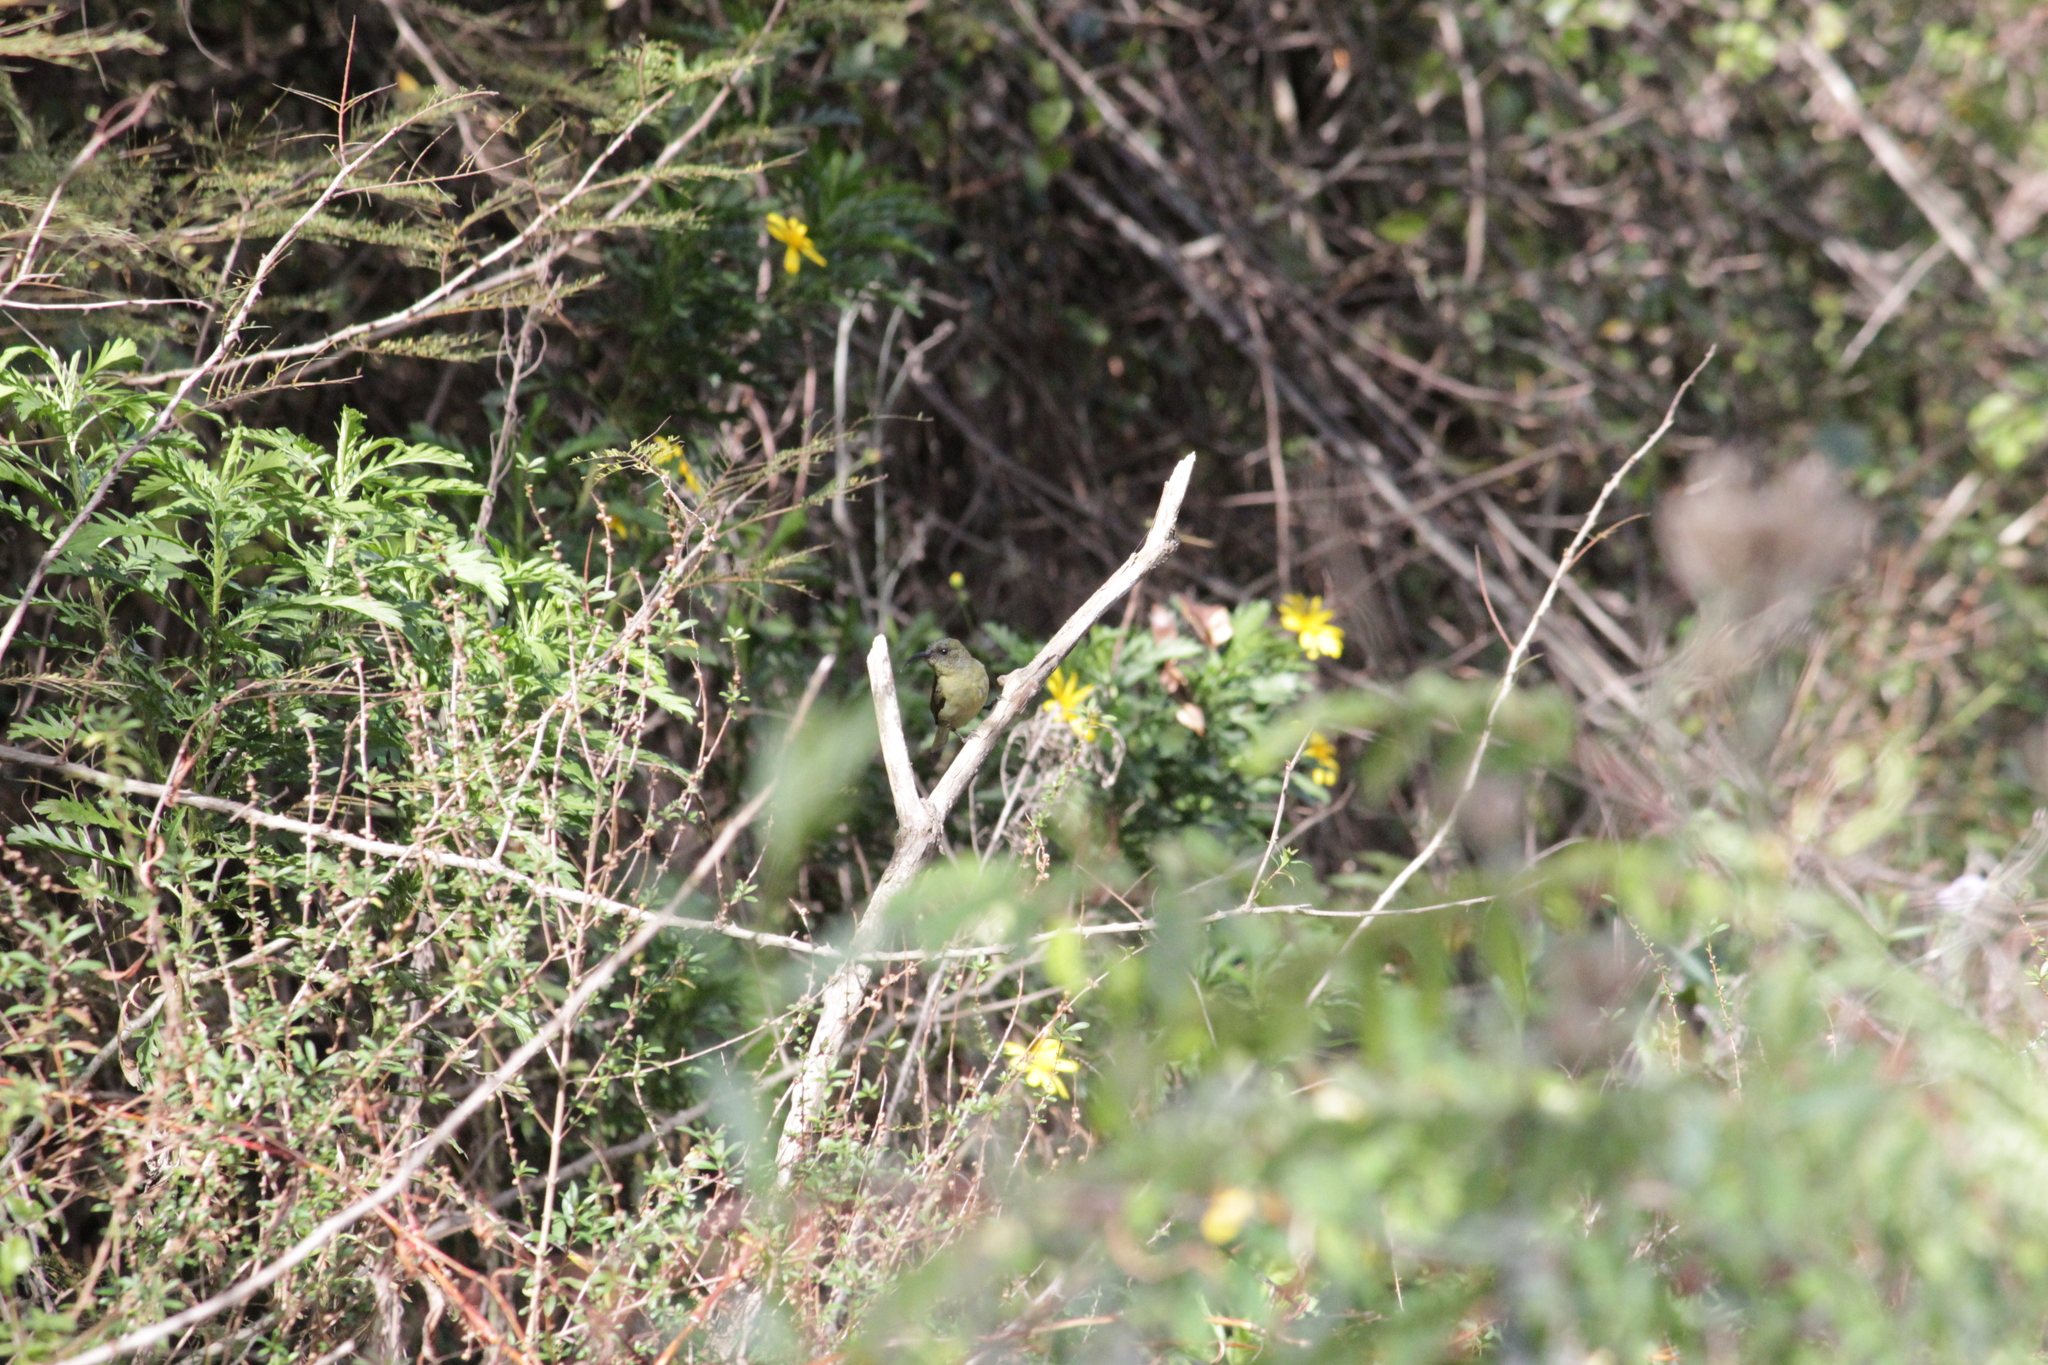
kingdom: Animalia
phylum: Chordata
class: Aves
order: Passeriformes
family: Nectariniidae
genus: Cyanomitra
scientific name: Cyanomitra olivacea
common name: Olive sunbird
